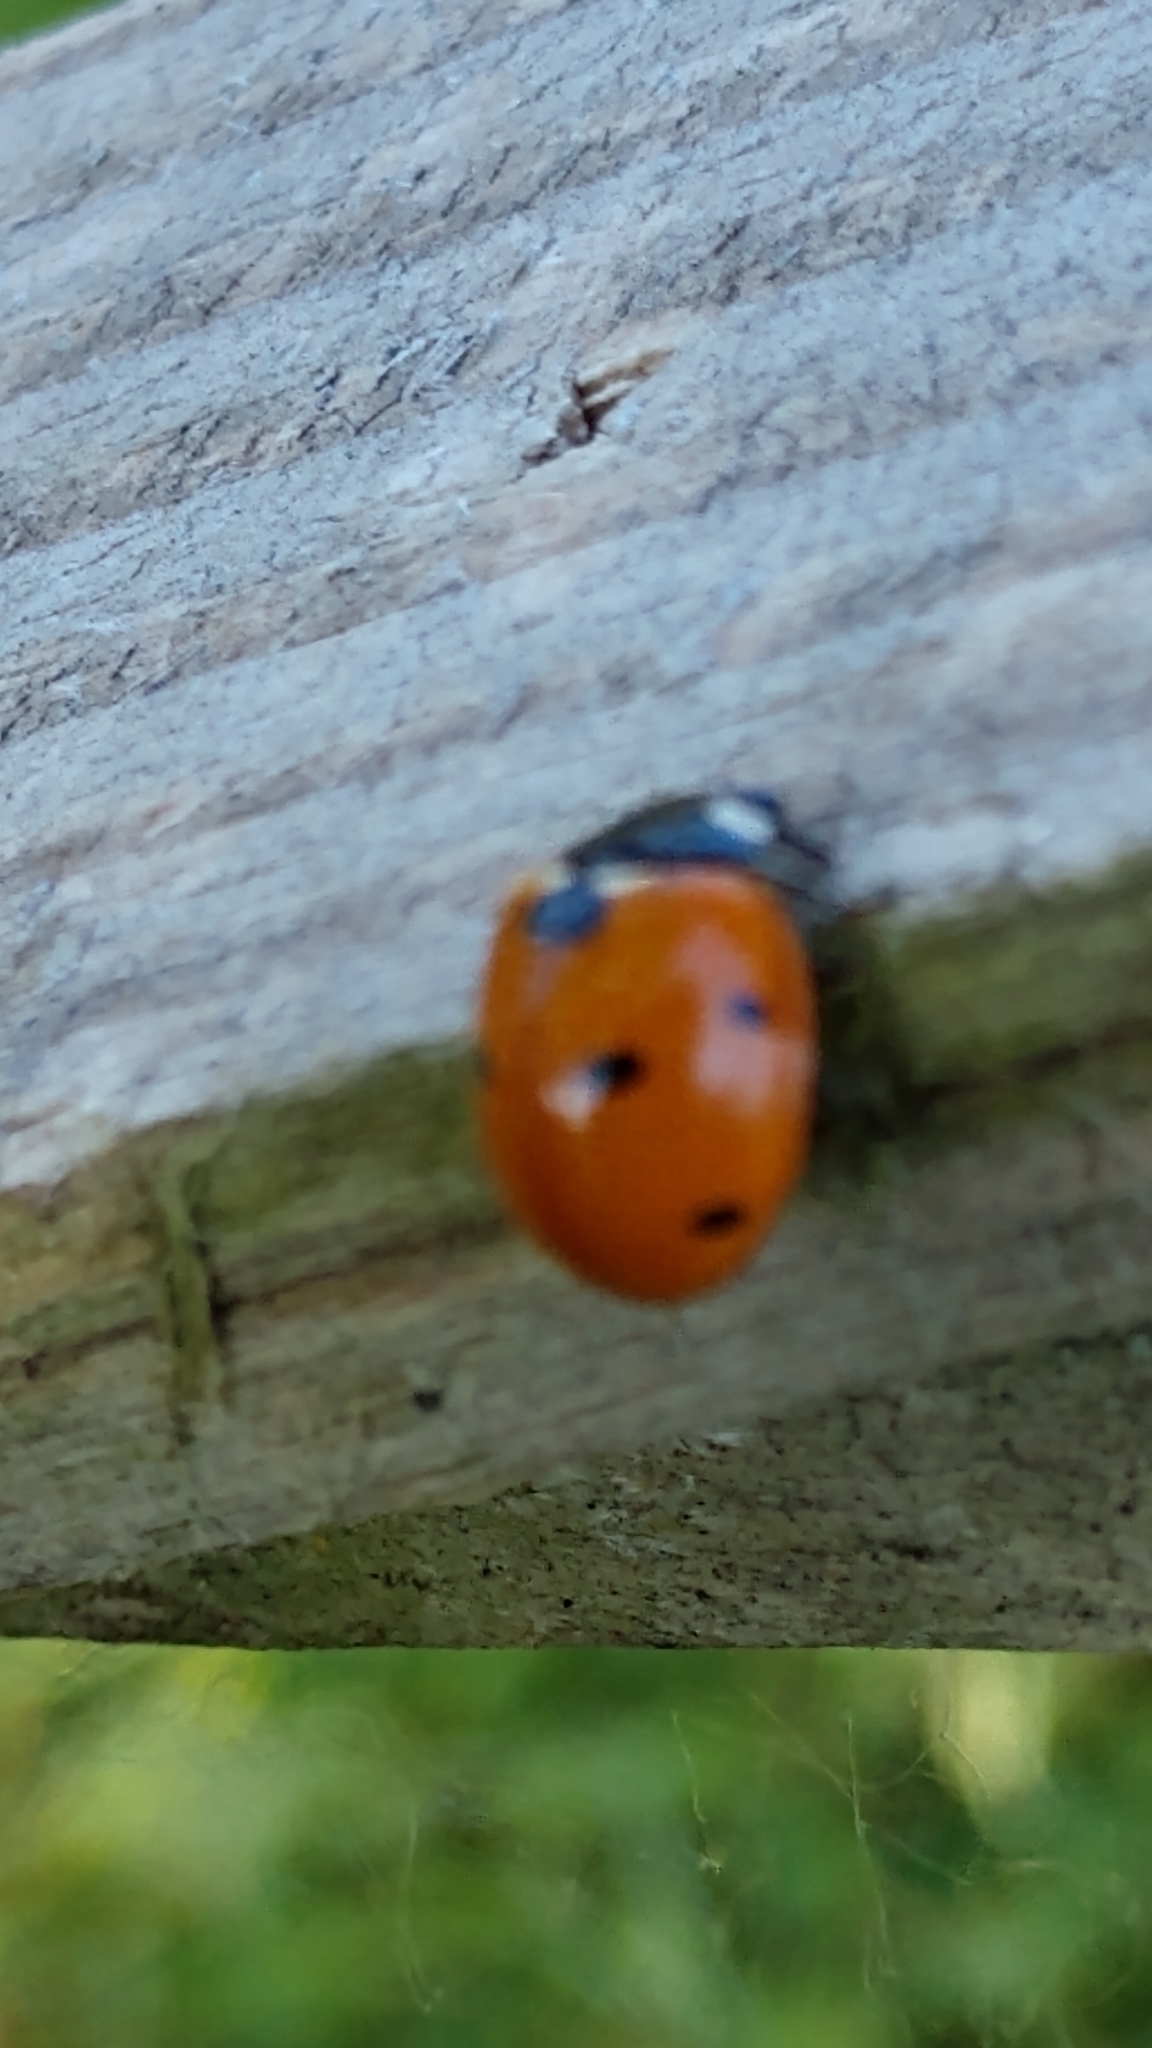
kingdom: Animalia
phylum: Arthropoda
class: Insecta
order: Coleoptera
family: Coccinellidae
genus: Coccinella
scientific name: Coccinella septempunctata
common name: Sevenspotted lady beetle
